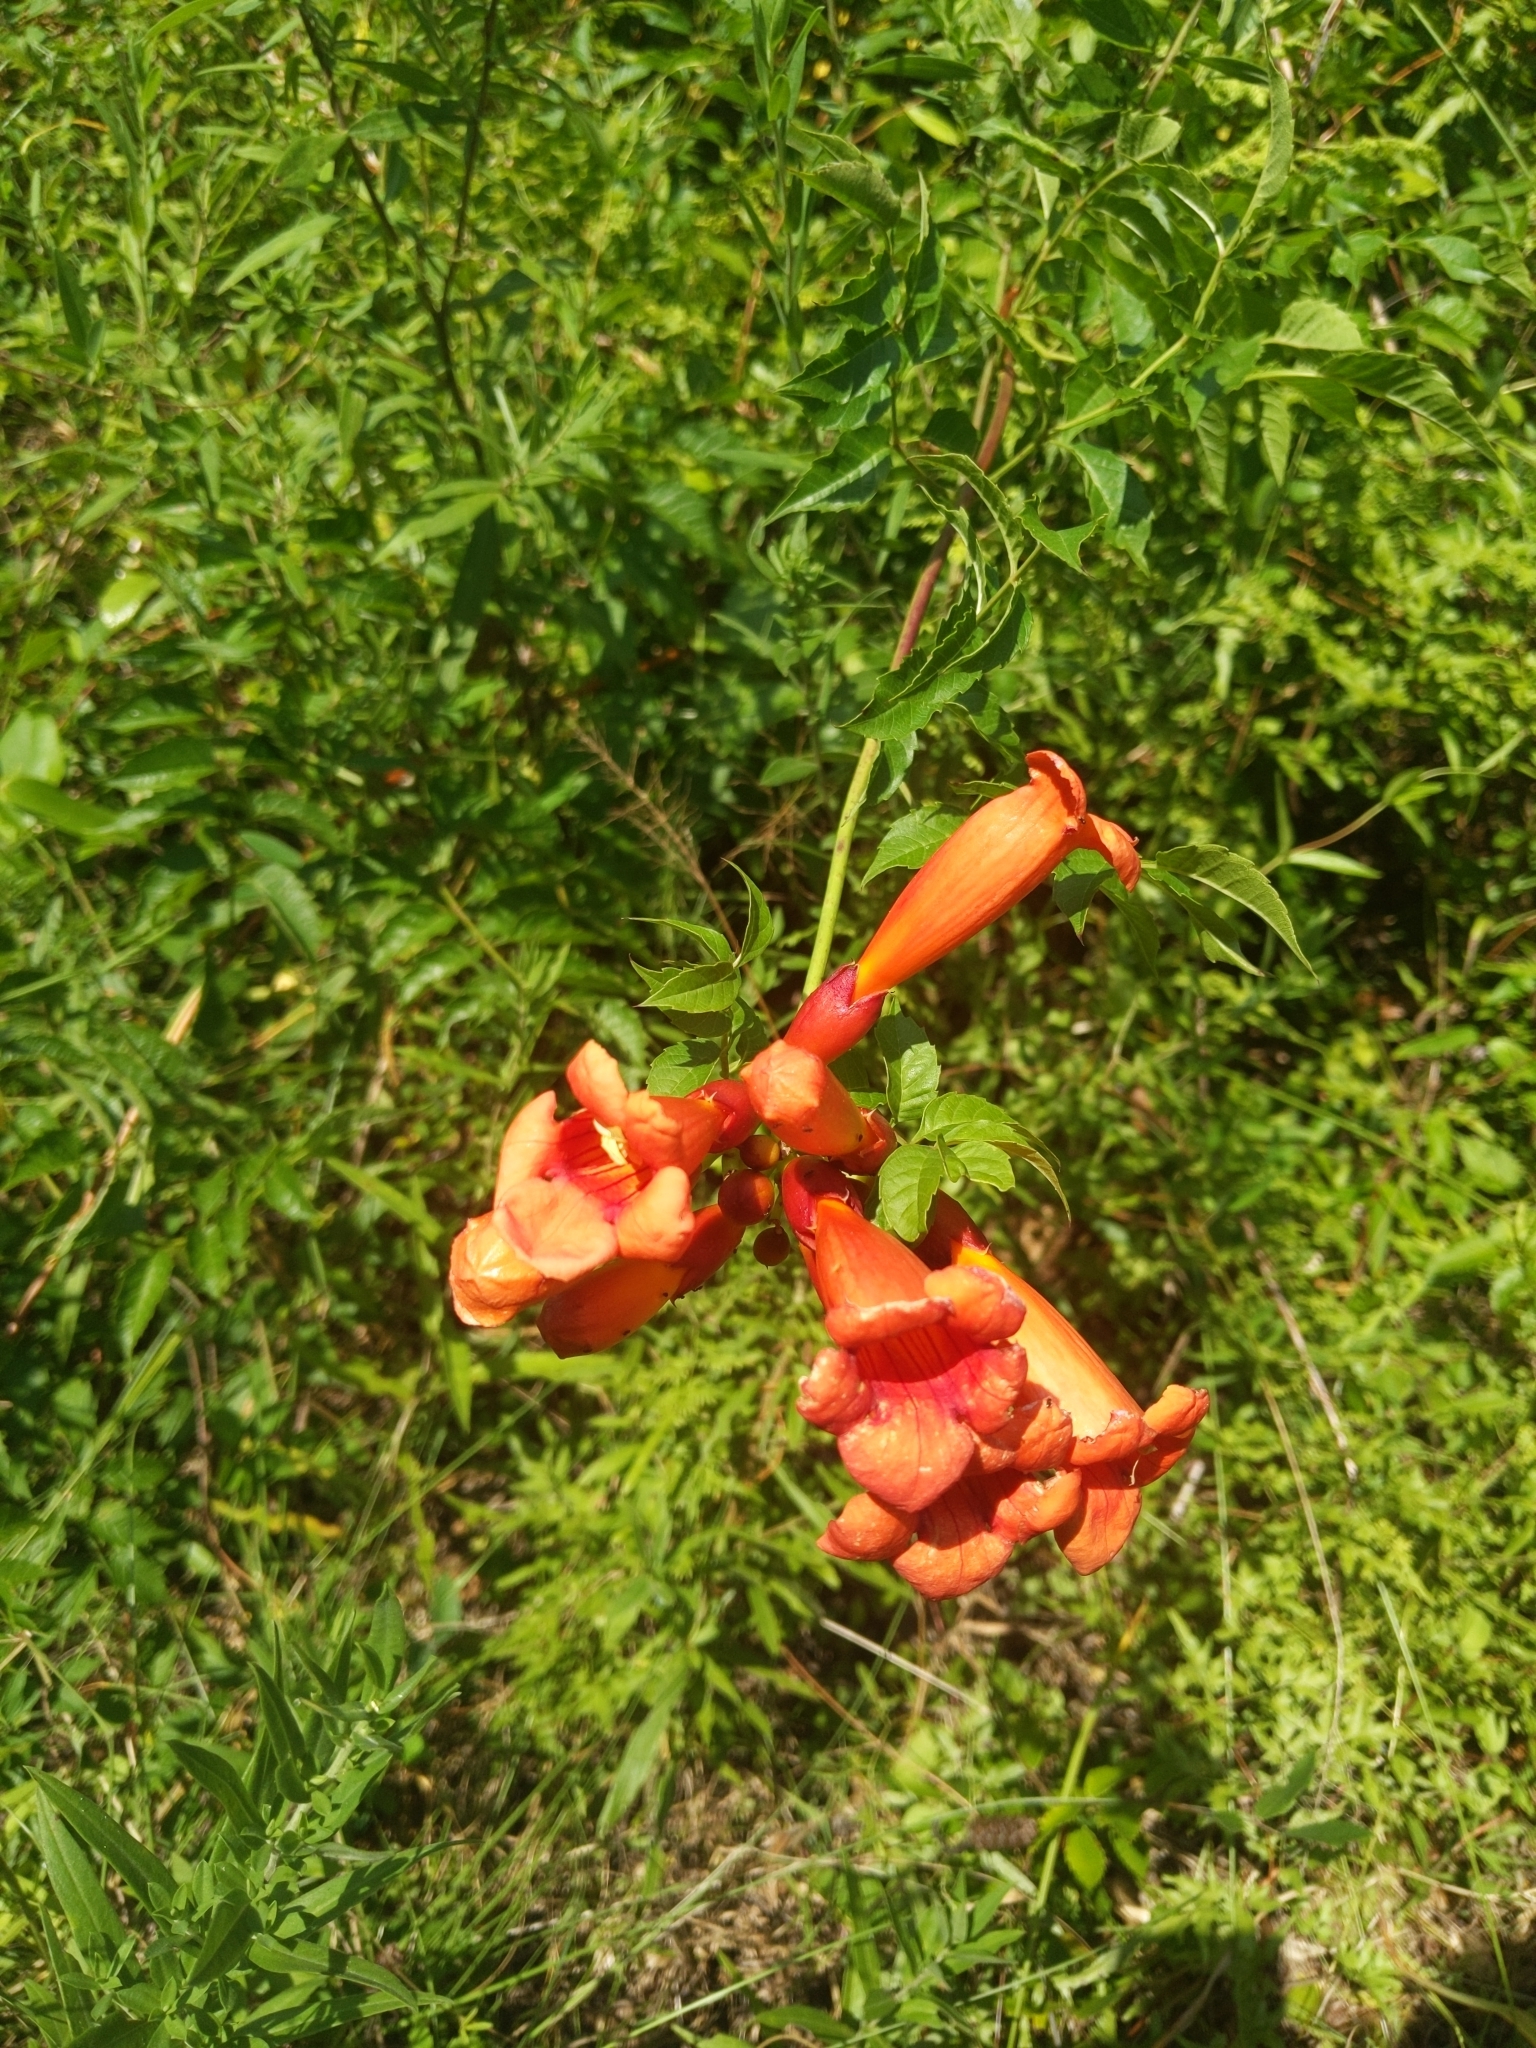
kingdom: Plantae
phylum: Tracheophyta
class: Magnoliopsida
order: Lamiales
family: Bignoniaceae
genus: Campsis
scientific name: Campsis radicans
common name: Trumpet-creeper
